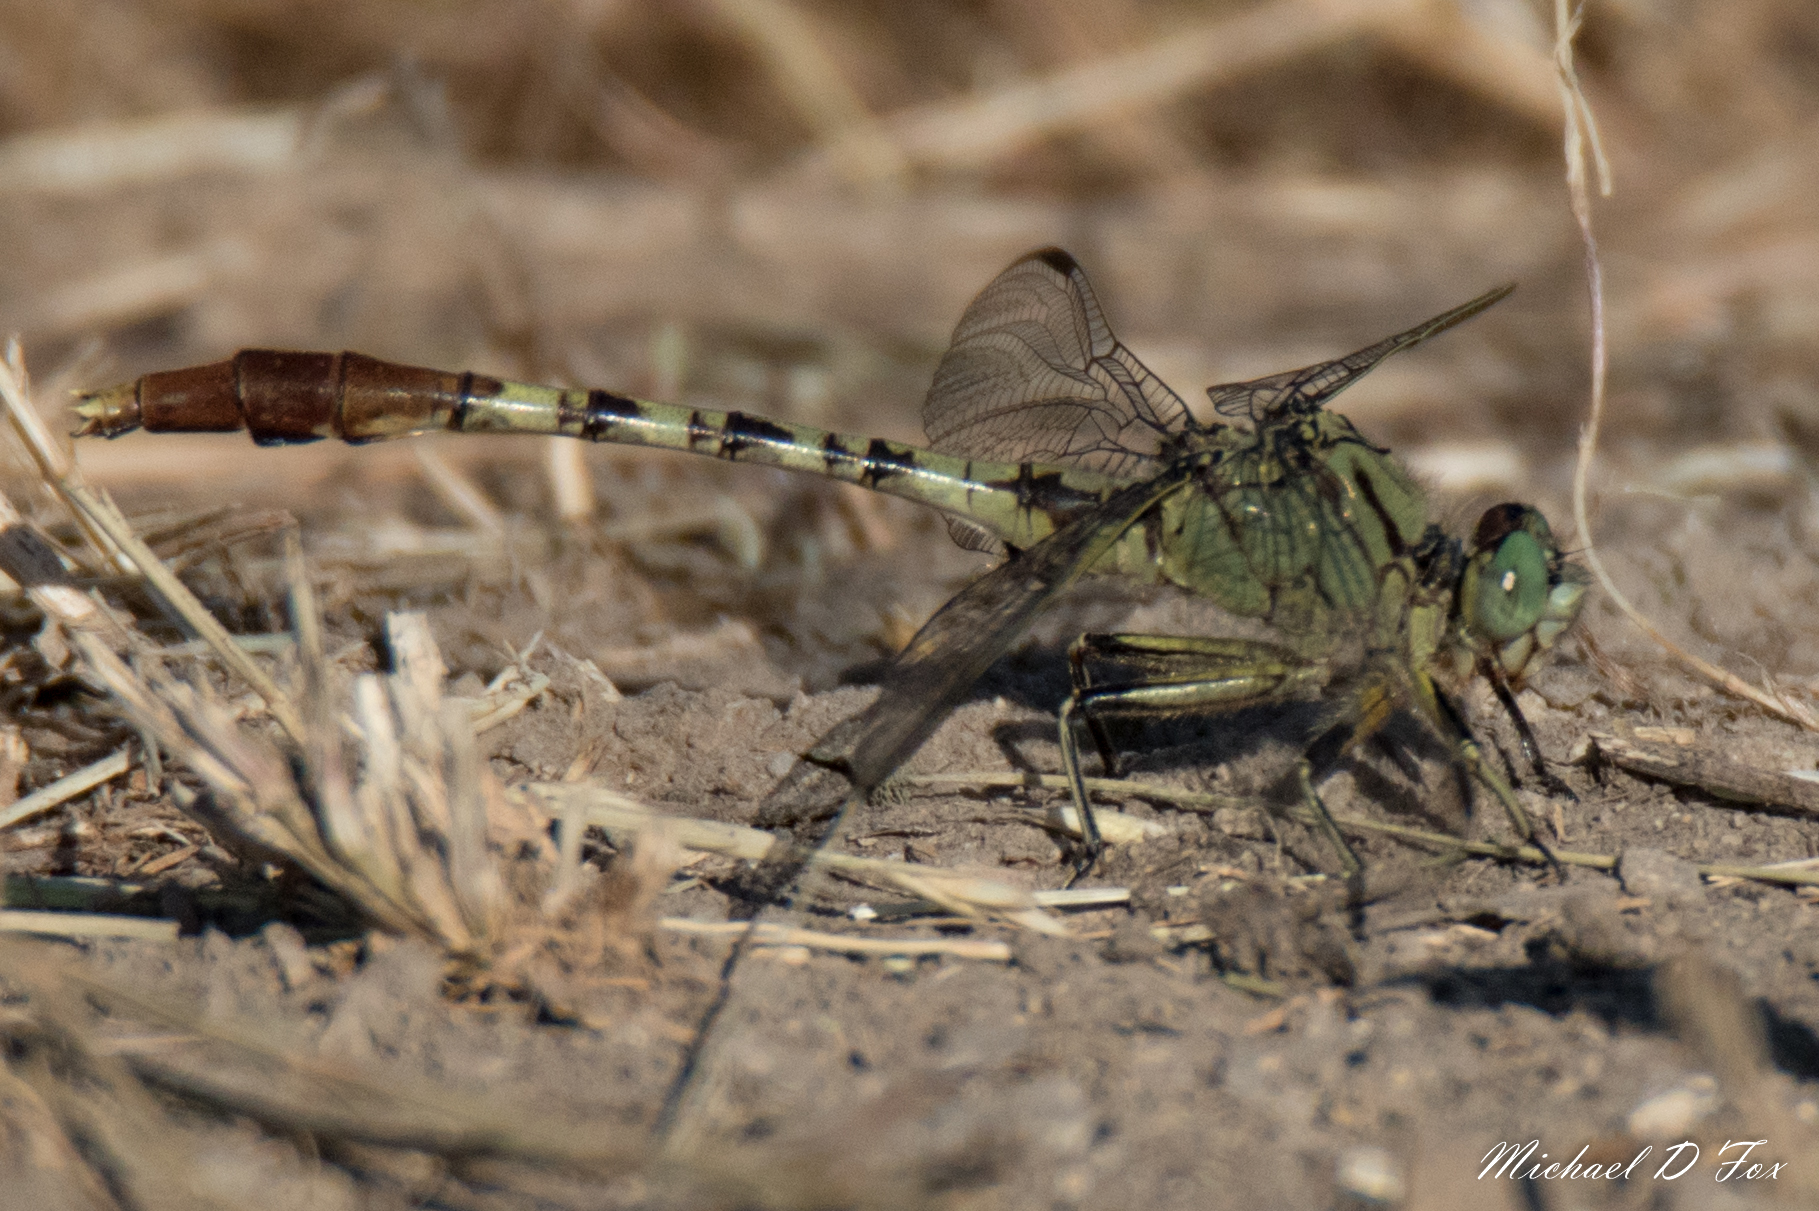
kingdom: Animalia
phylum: Arthropoda
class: Insecta
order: Odonata
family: Gomphidae
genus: Arigomphus
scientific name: Arigomphus submedianus
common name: Jade clubtail
